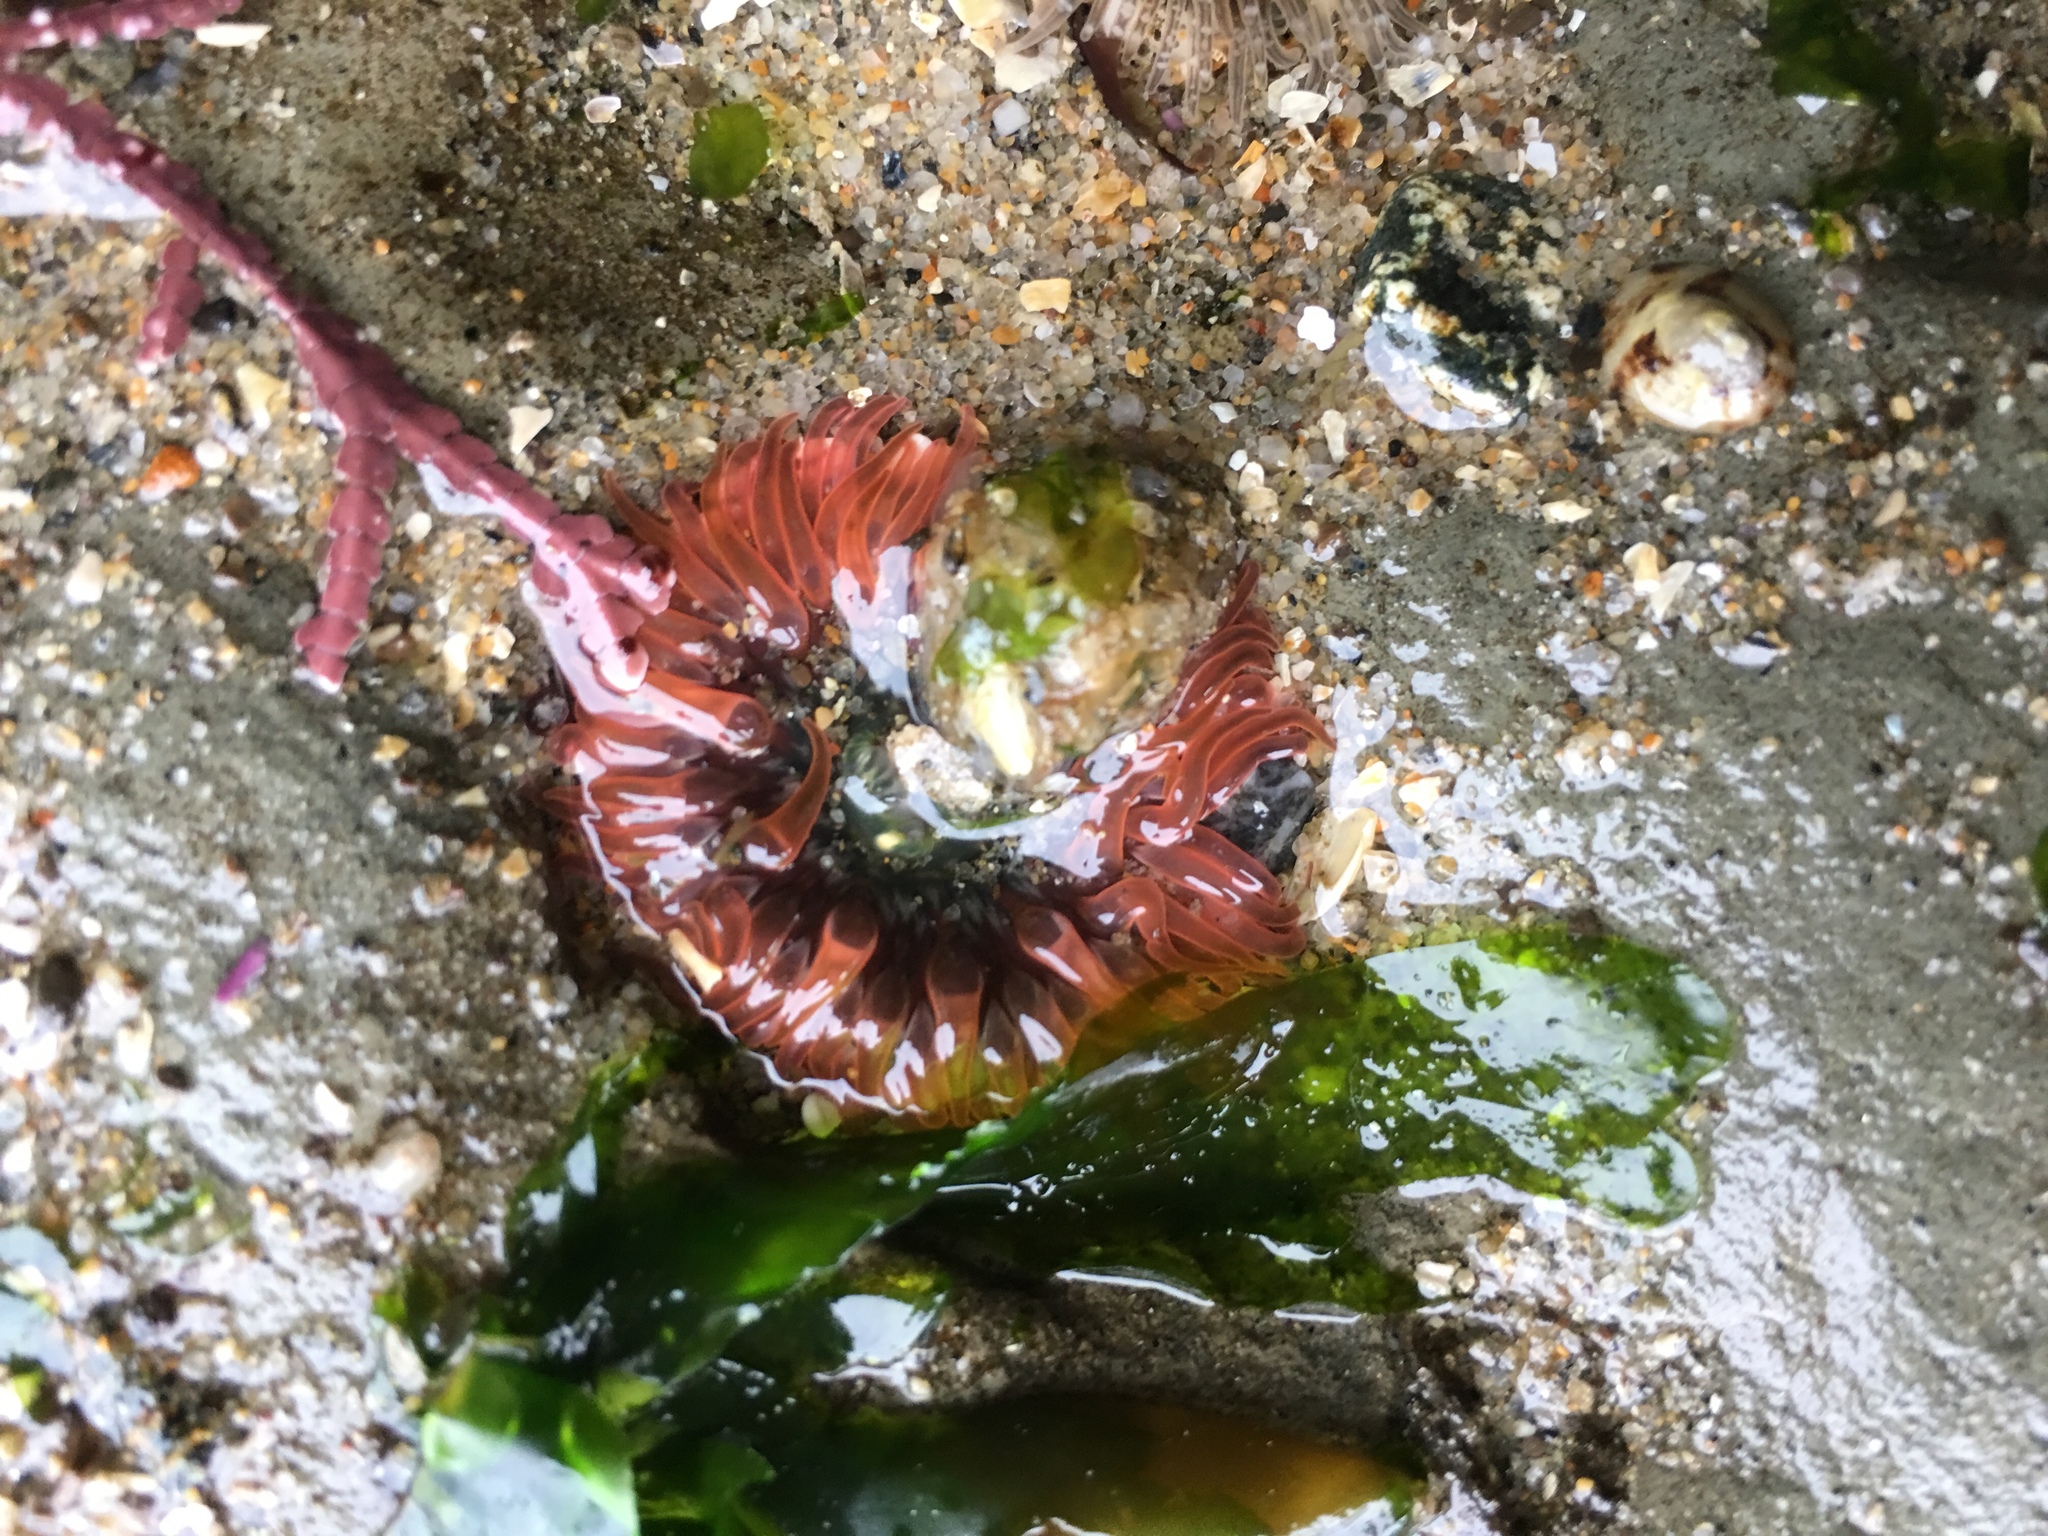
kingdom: Animalia
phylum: Cnidaria
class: Anthozoa
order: Actiniaria
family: Actiniidae
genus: Anthopleura
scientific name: Anthopleura artemisia
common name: Buried sea anemone
